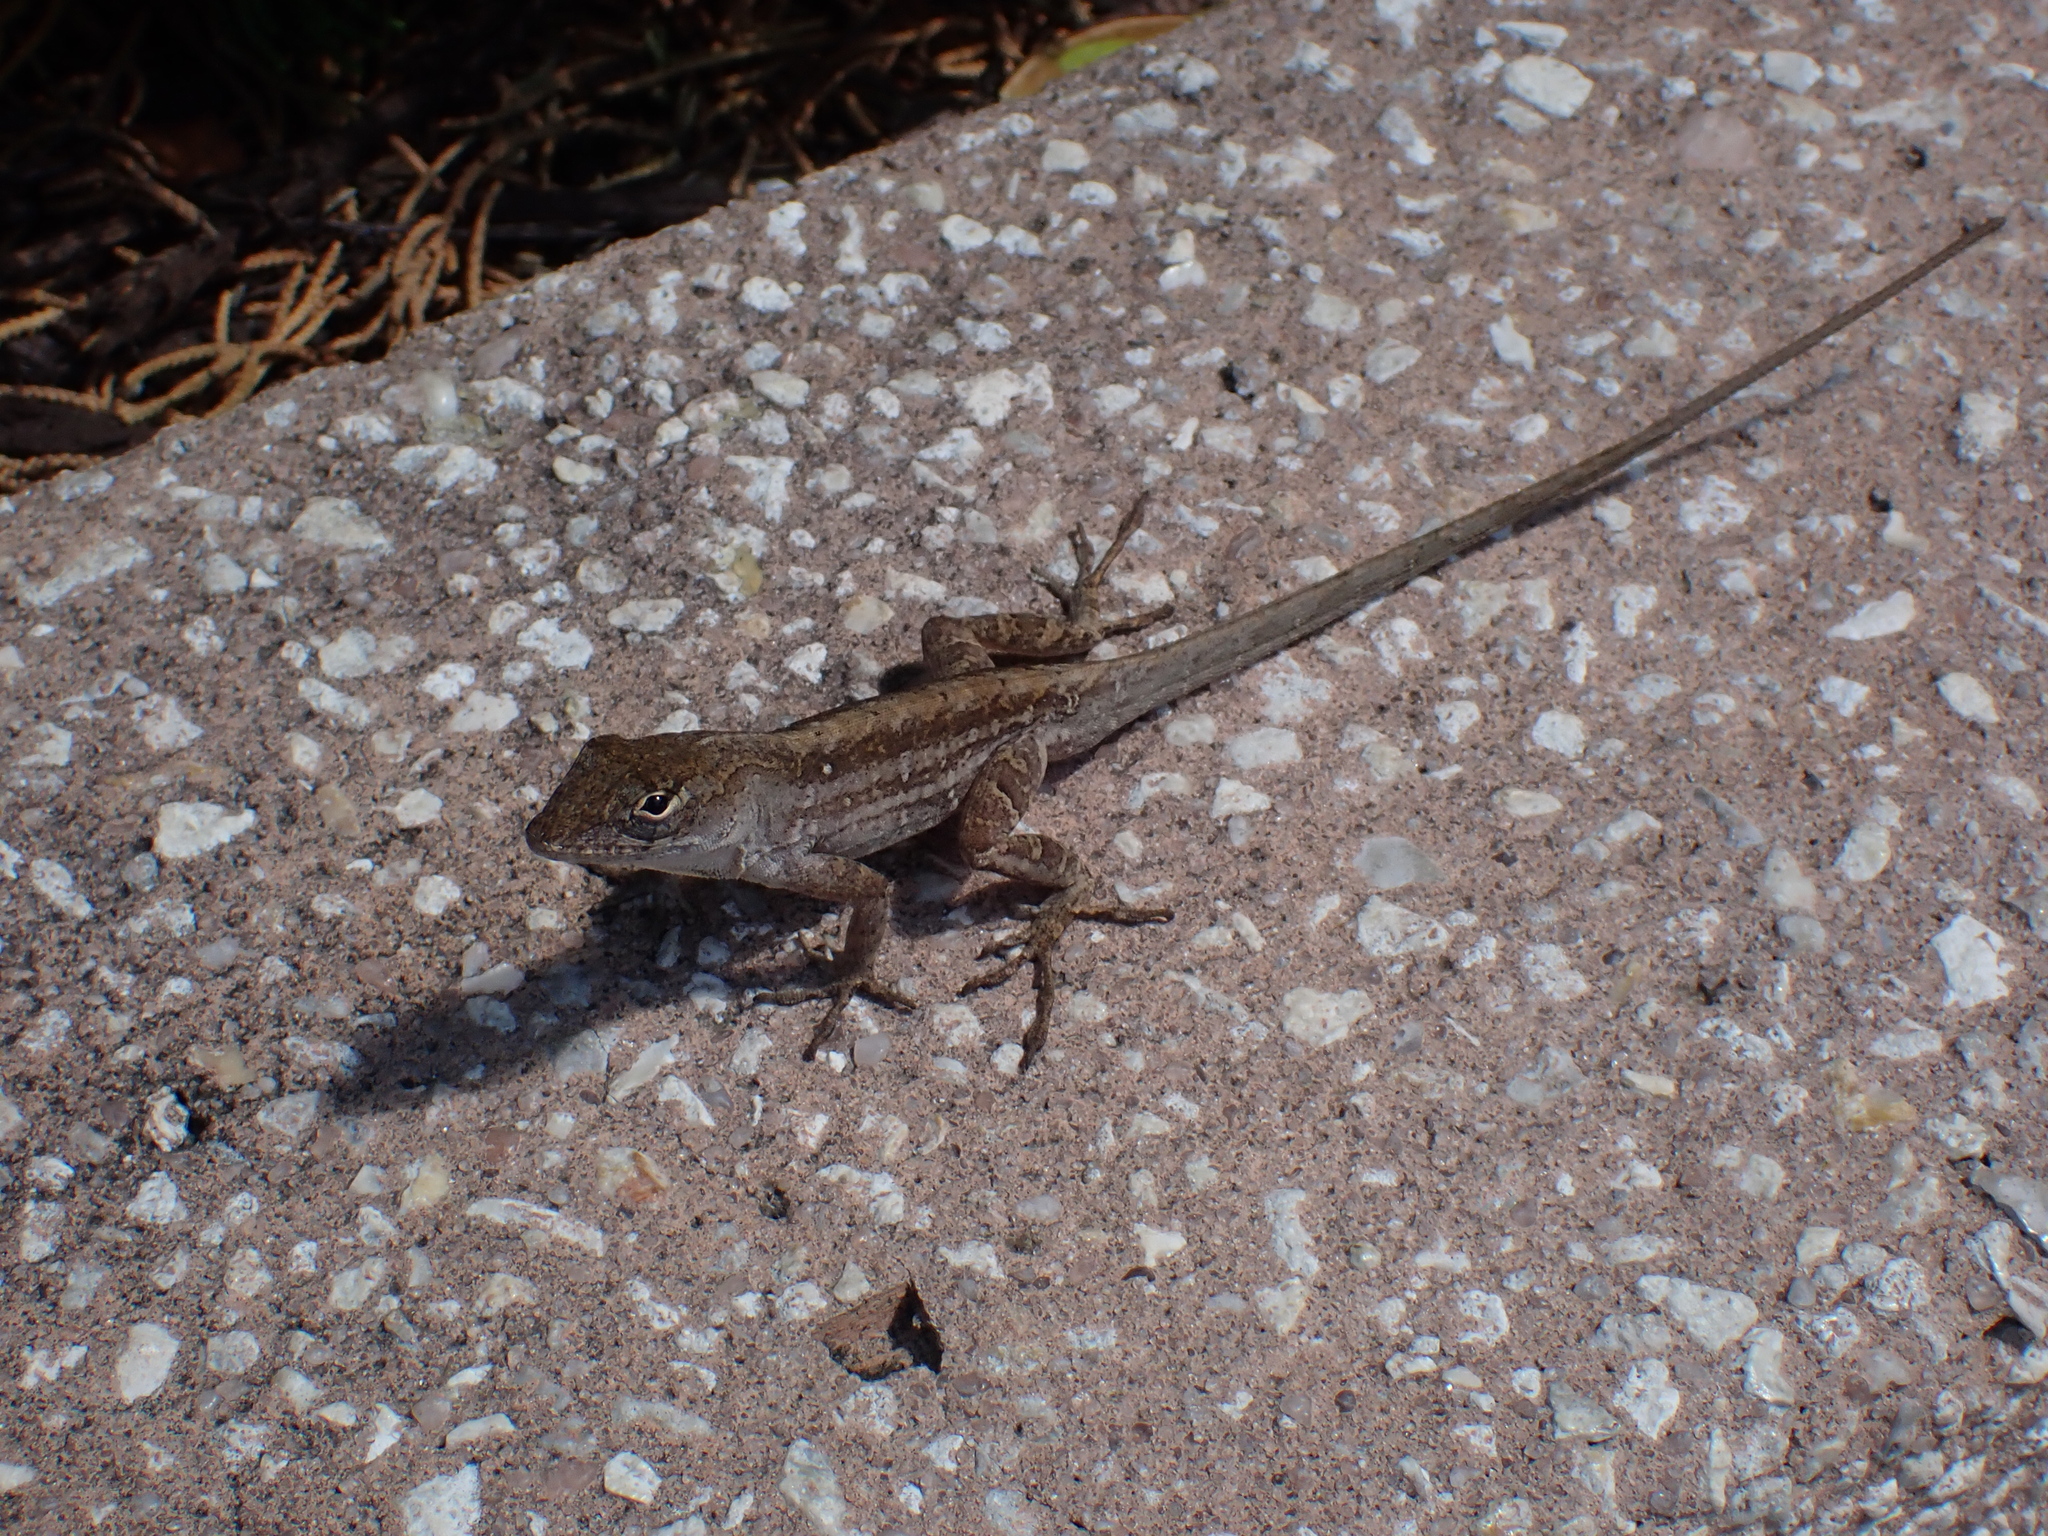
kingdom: Animalia
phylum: Chordata
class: Squamata
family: Dactyloidae
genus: Anolis
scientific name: Anolis sagrei
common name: Brown anole
